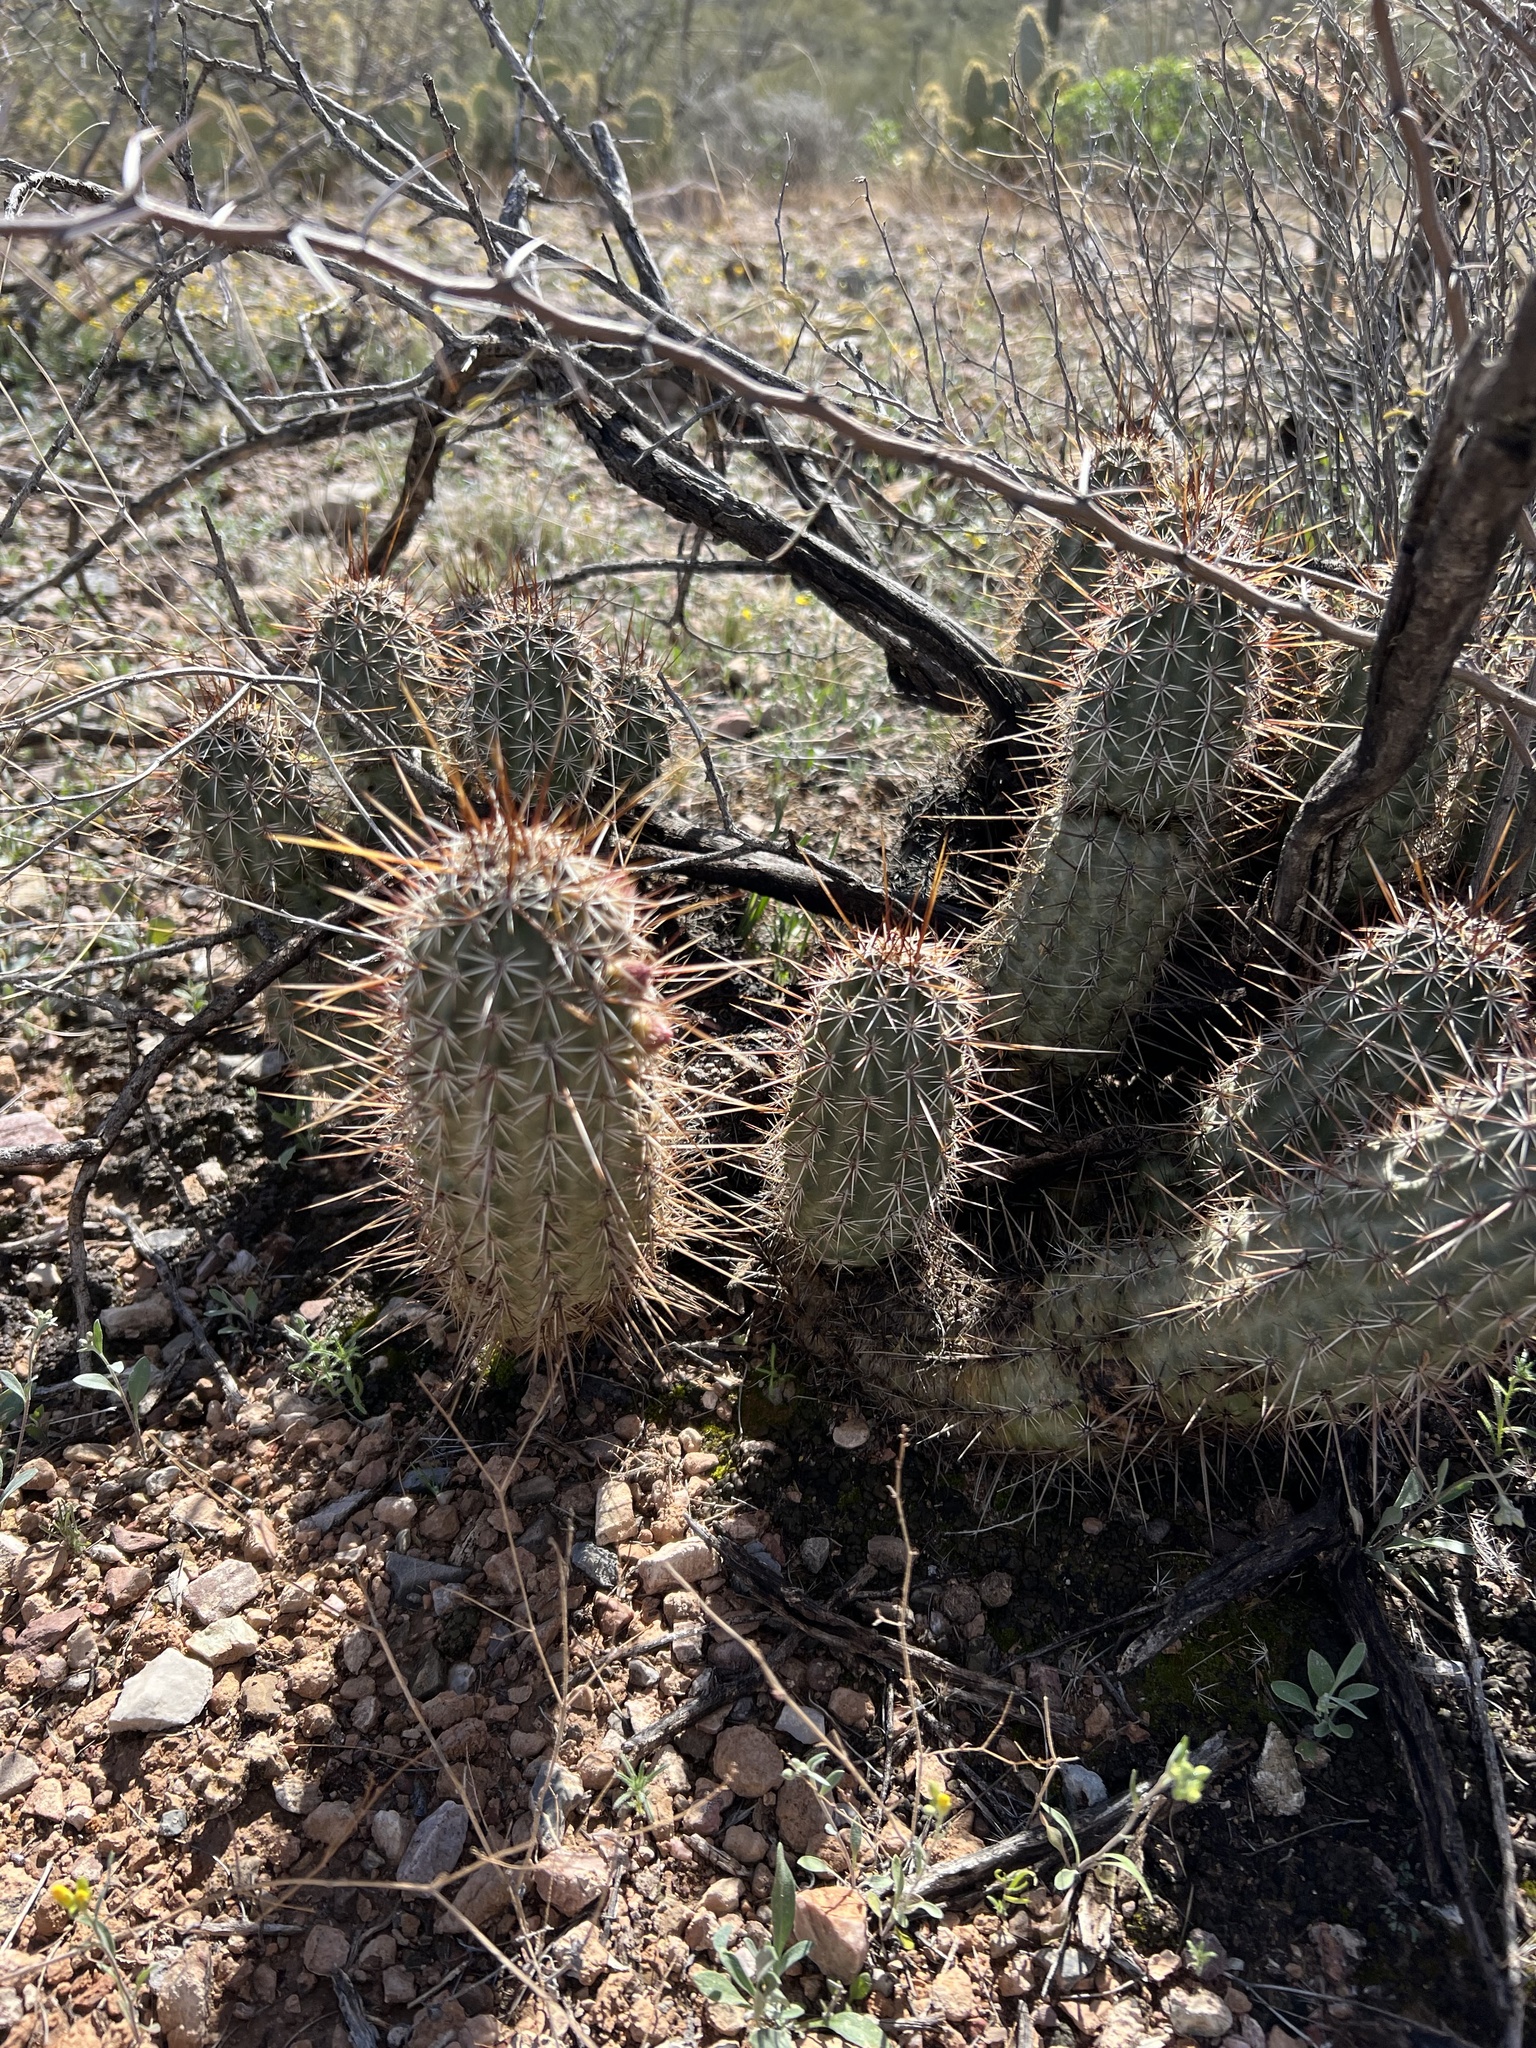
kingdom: Plantae
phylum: Tracheophyta
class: Magnoliopsida
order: Caryophyllales
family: Cactaceae
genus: Echinocereus
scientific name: Echinocereus fasciculatus
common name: Bundle hedgehog
